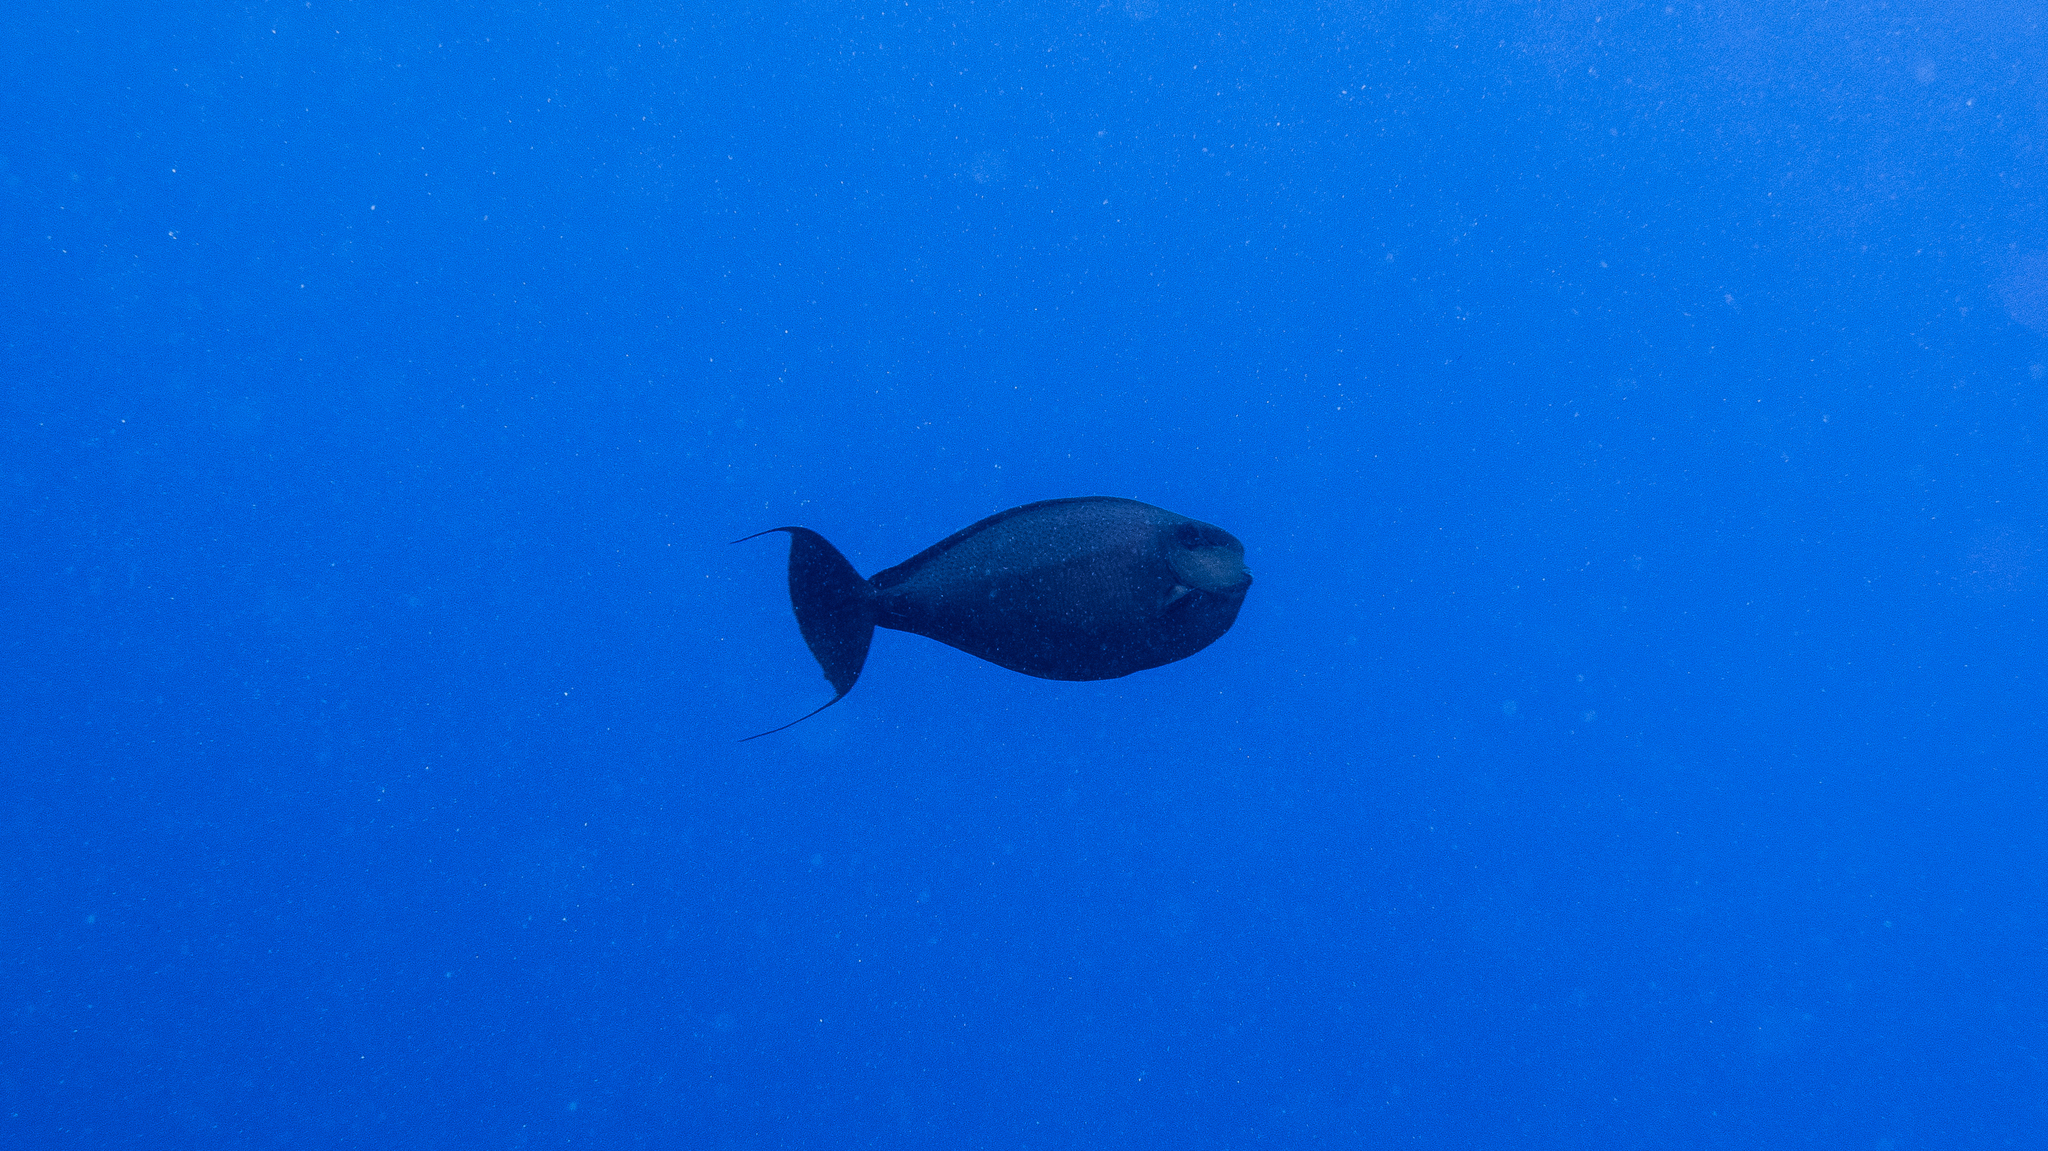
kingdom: Animalia
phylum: Chordata
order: Perciformes
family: Acanthuridae
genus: Naso
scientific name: Naso vlamingii
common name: Big-nose unicorn
